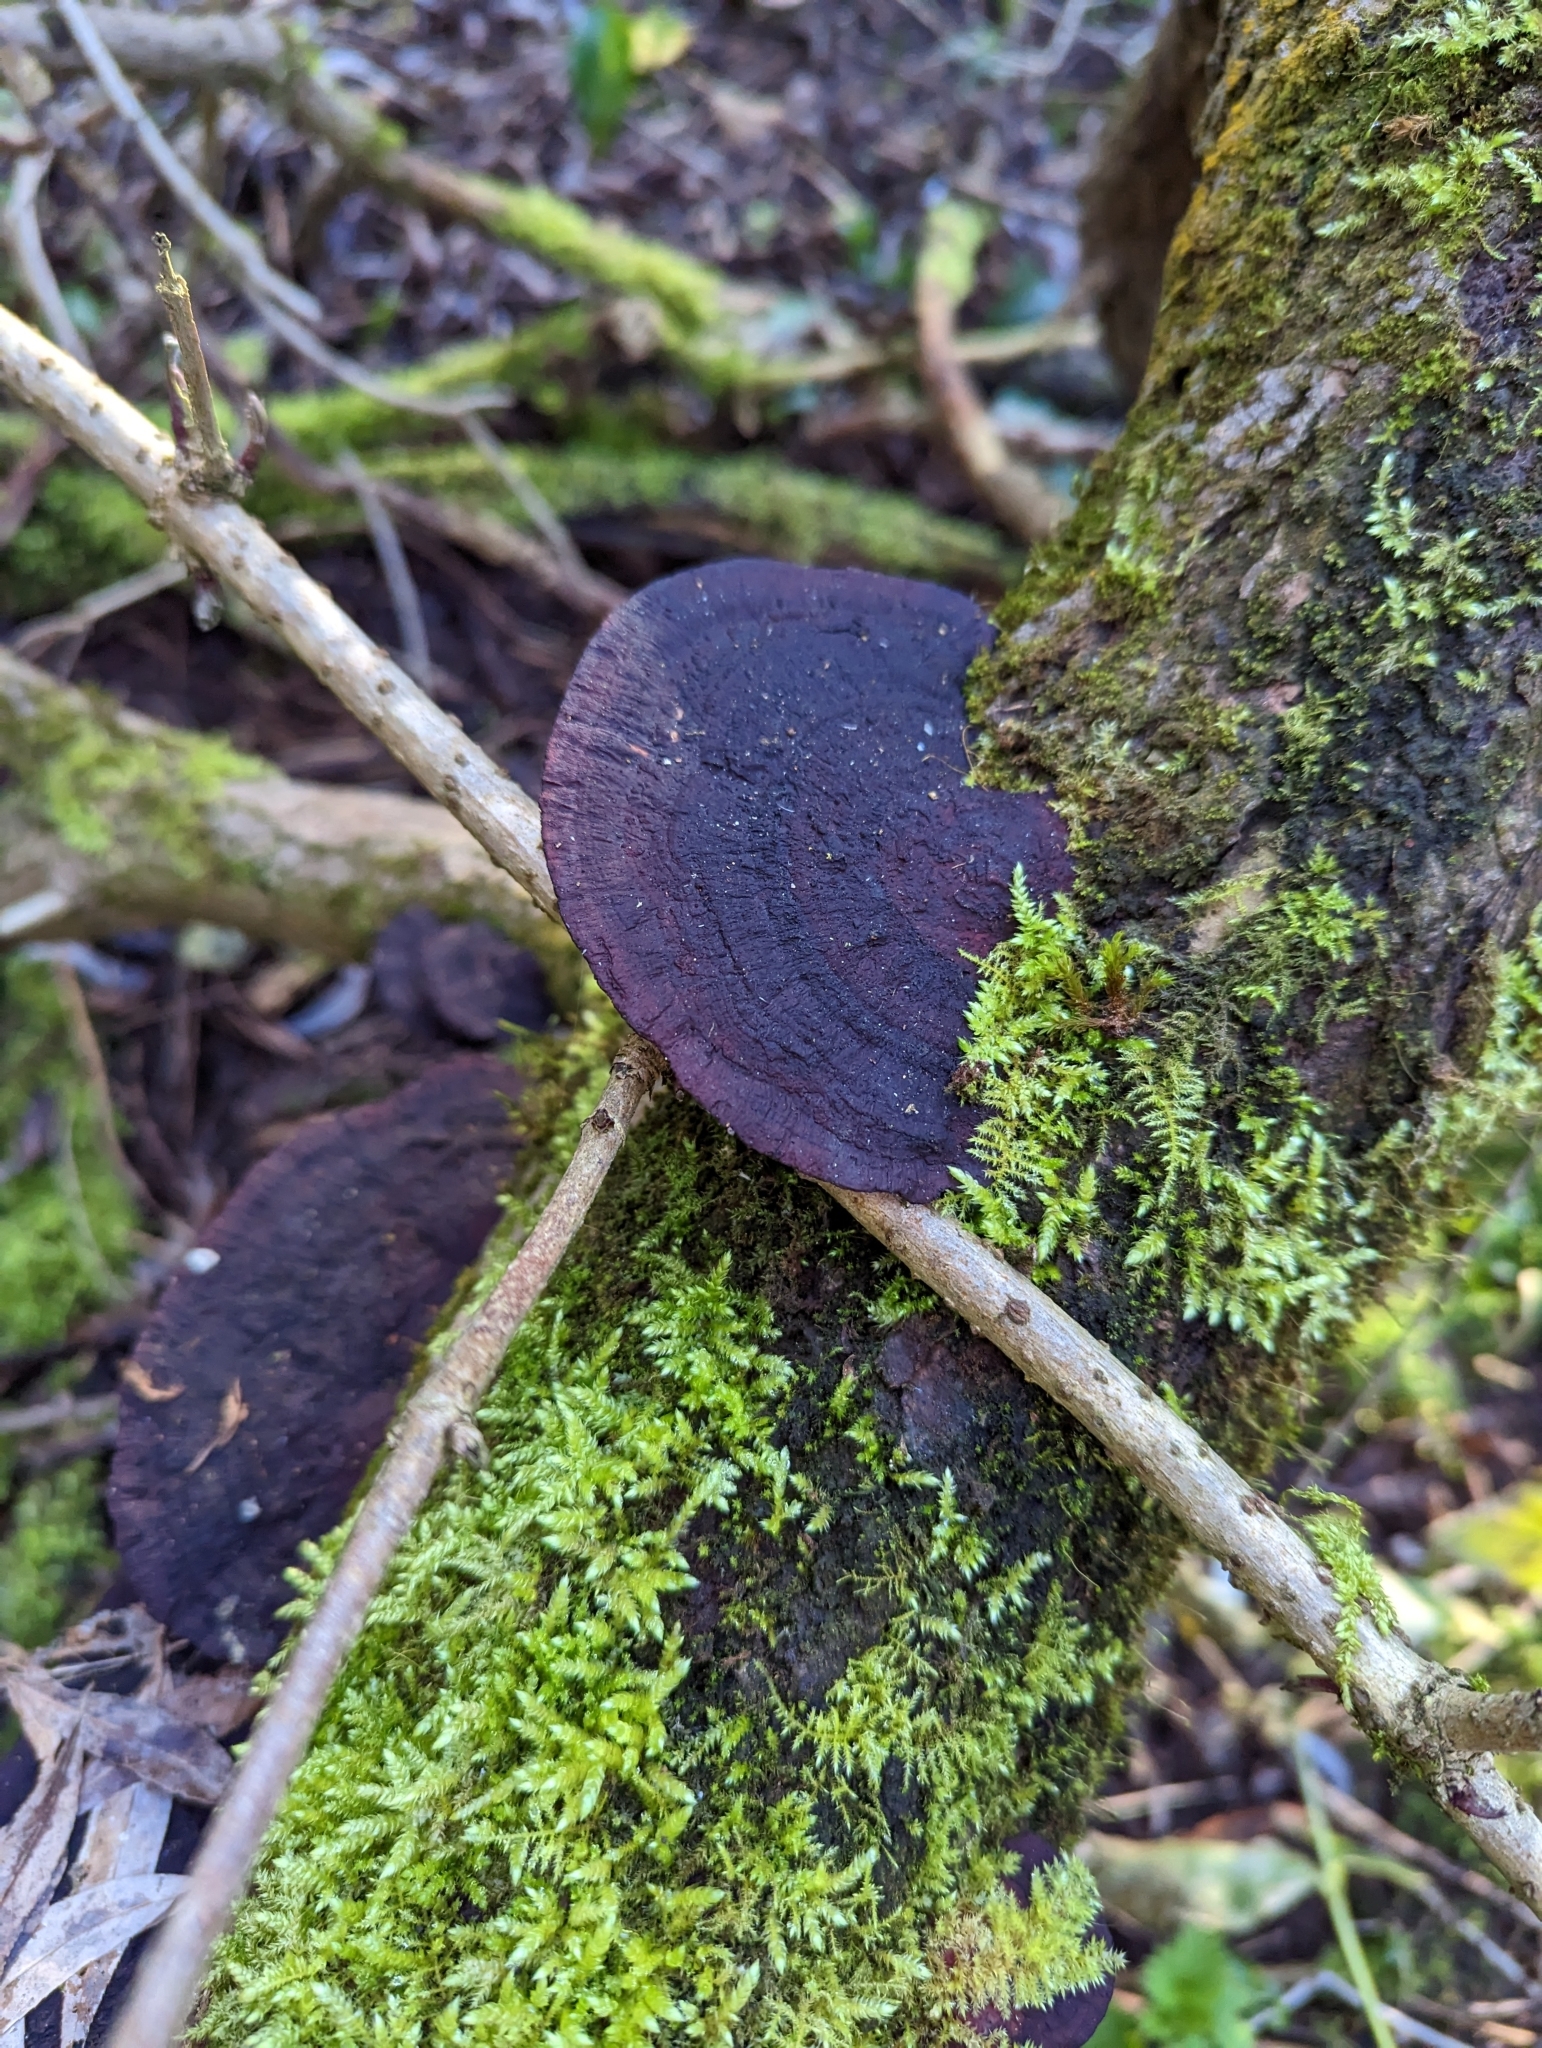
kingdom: Fungi
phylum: Basidiomycota
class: Agaricomycetes
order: Polyporales
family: Polyporaceae
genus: Daedaleopsis
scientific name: Daedaleopsis confragosa
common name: Blushing bracket
